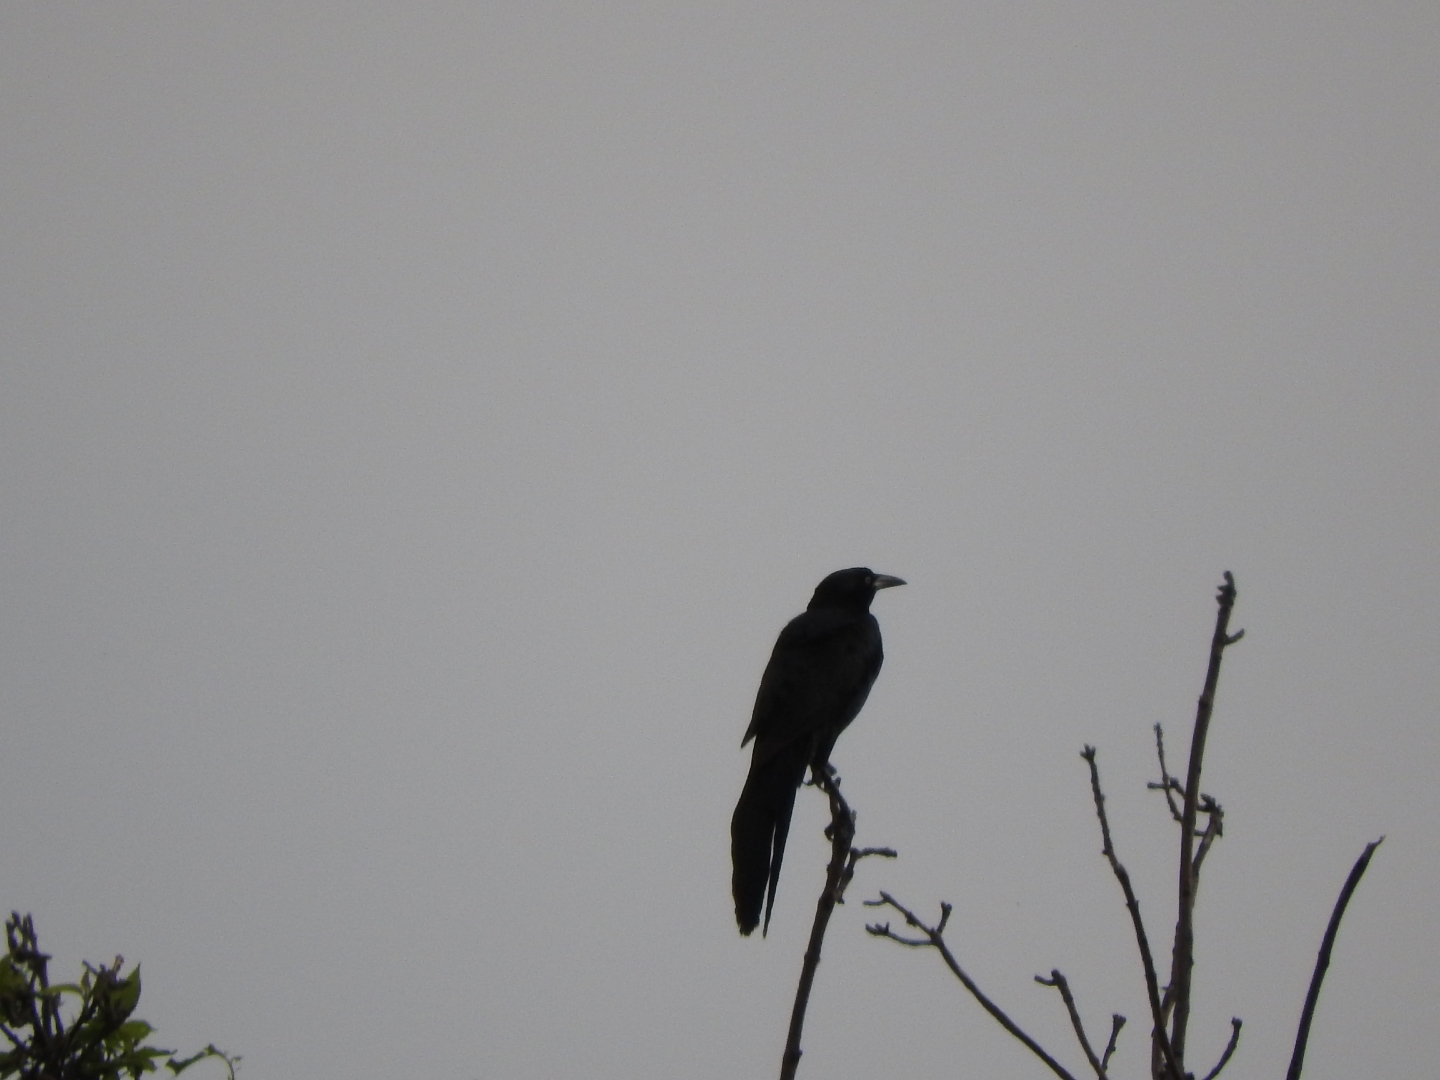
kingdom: Animalia
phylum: Chordata
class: Aves
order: Passeriformes
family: Icteridae
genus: Quiscalus
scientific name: Quiscalus mexicanus
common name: Great-tailed grackle
